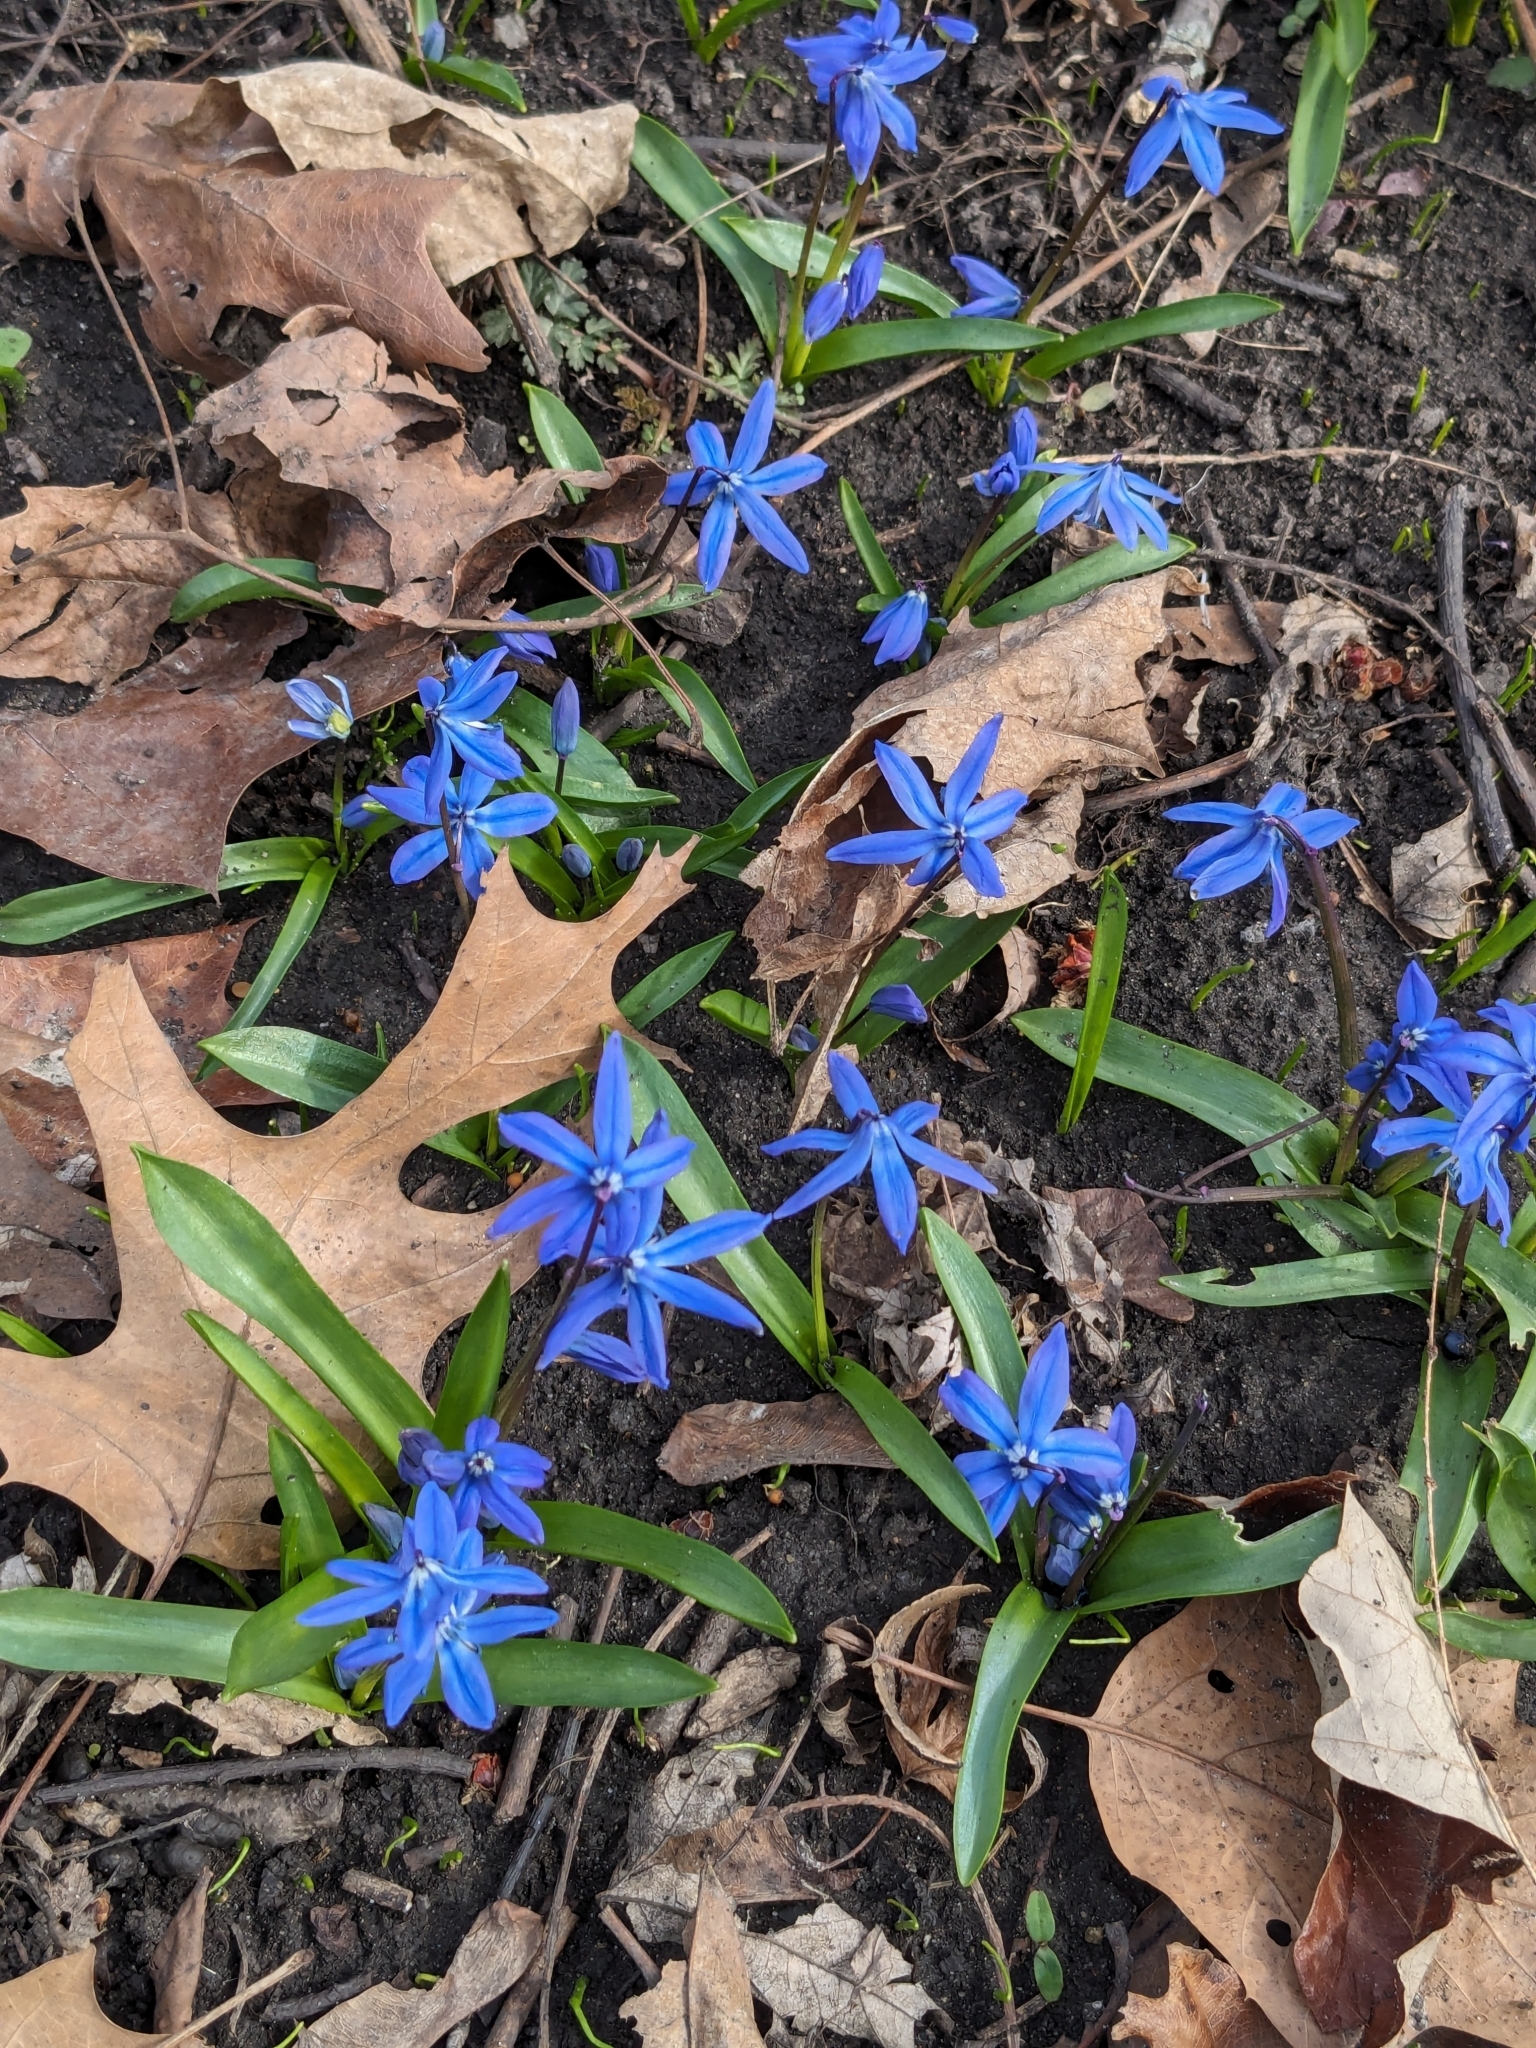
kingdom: Plantae
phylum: Tracheophyta
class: Liliopsida
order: Asparagales
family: Asparagaceae
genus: Scilla
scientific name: Scilla siberica
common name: Siberian squill
